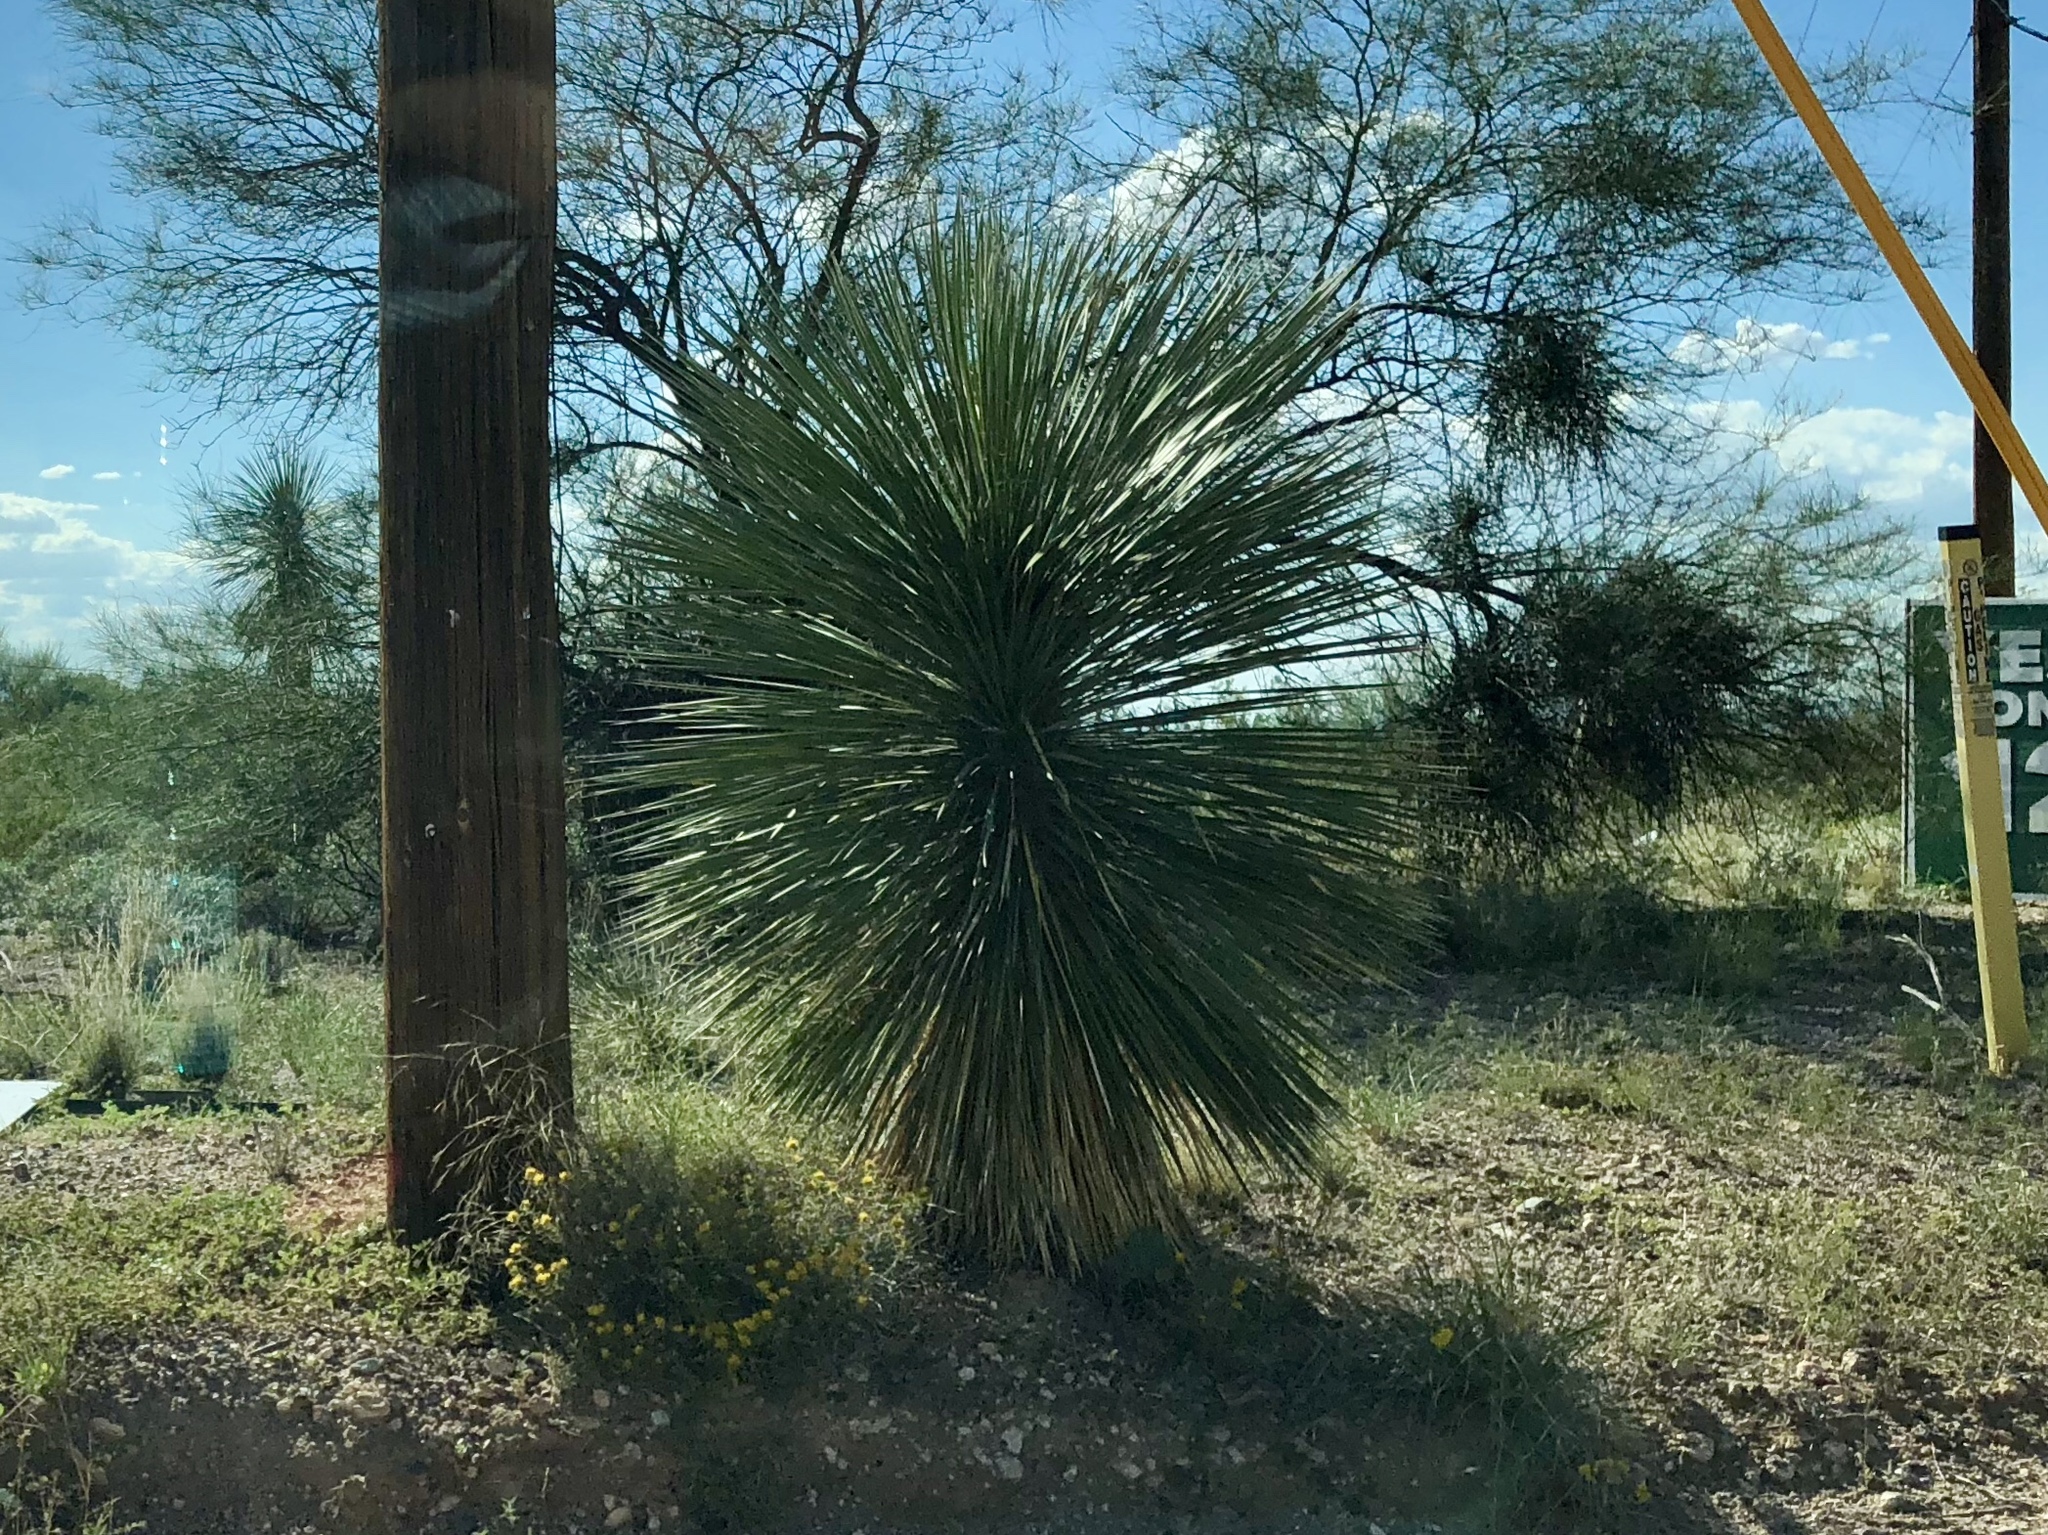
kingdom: Plantae
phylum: Tracheophyta
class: Liliopsida
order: Asparagales
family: Asparagaceae
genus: Yucca
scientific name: Yucca elata
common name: Palmella
